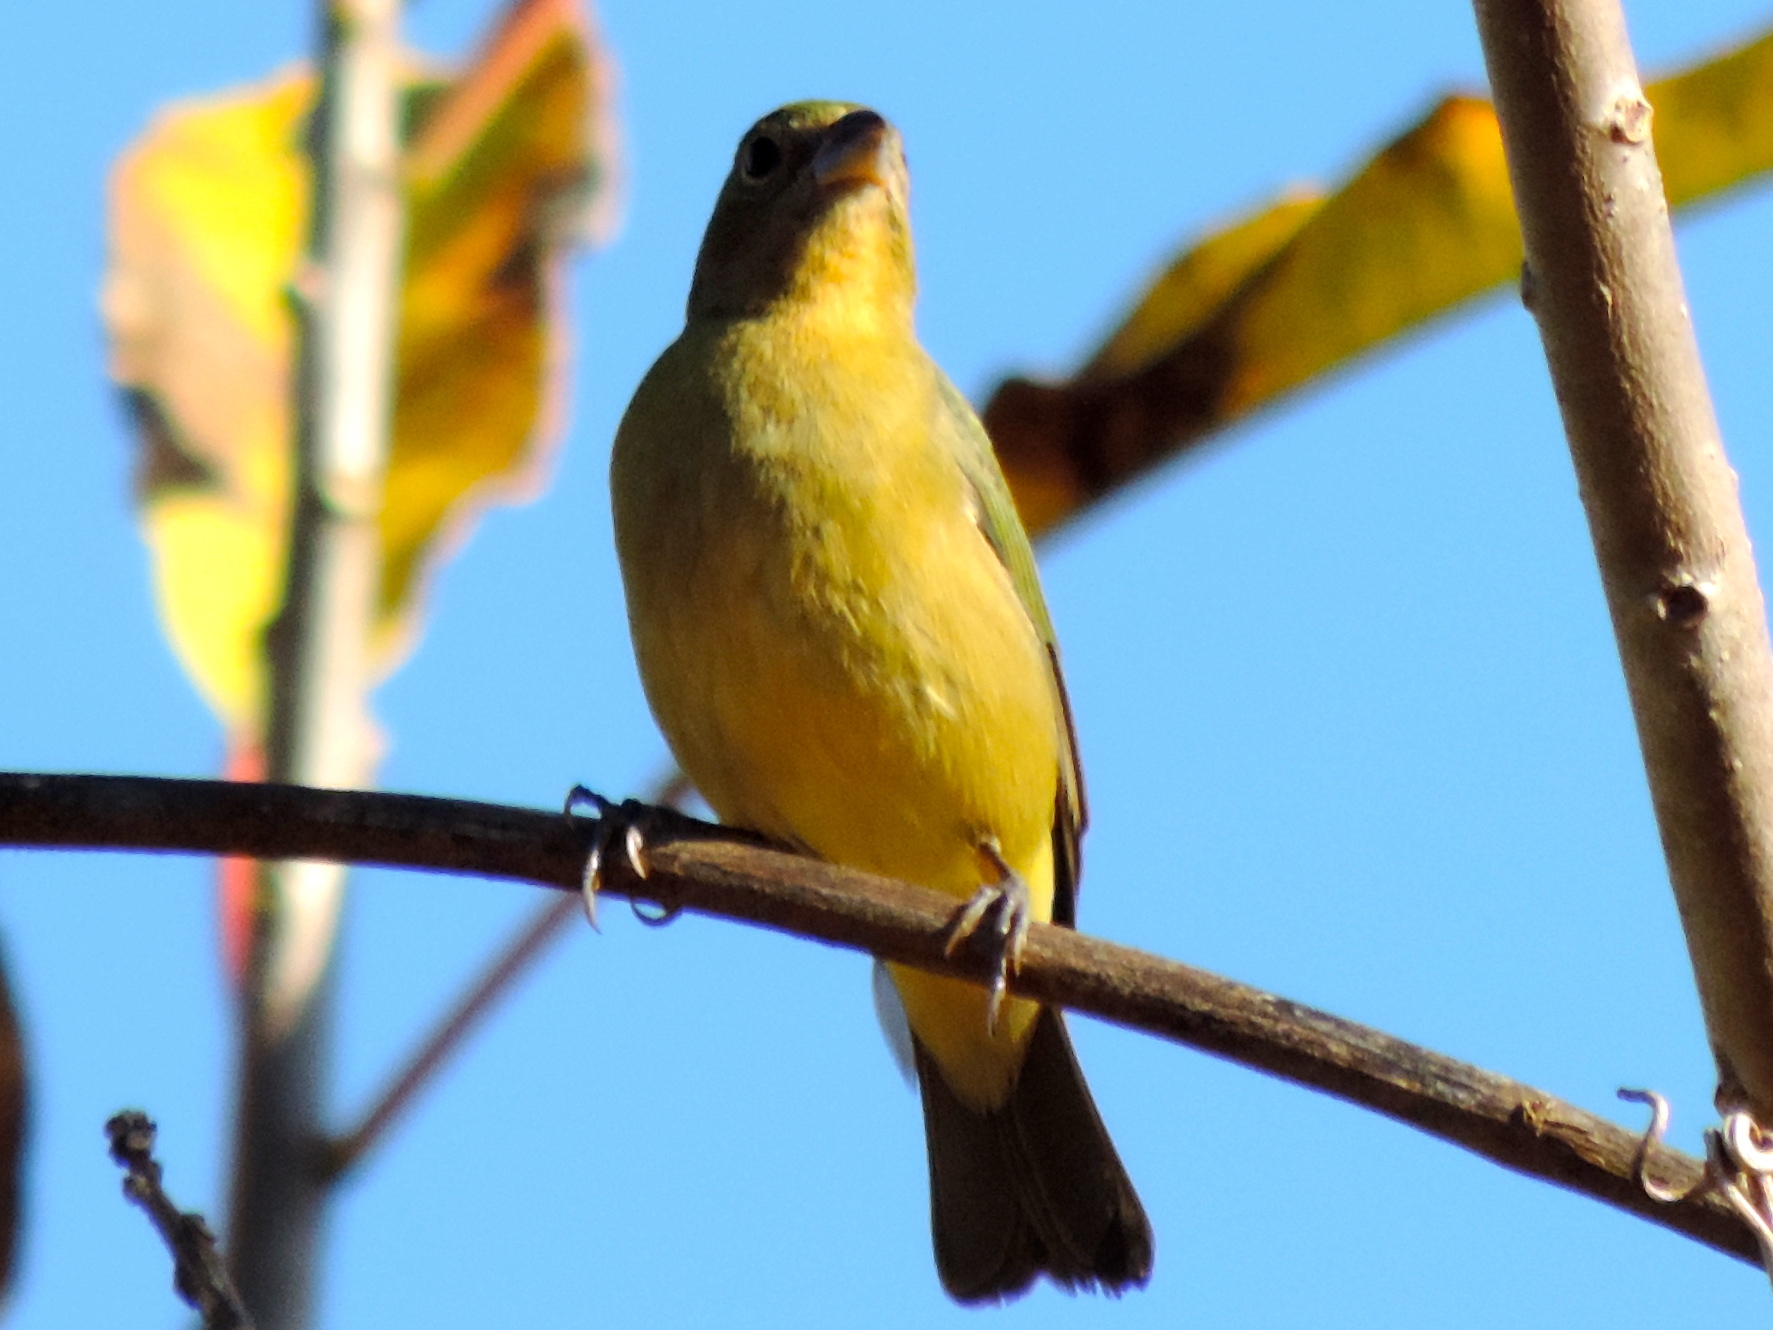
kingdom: Animalia
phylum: Chordata
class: Aves
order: Passeriformes
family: Cardinalidae
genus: Passerina
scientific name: Passerina ciris
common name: Painted bunting
